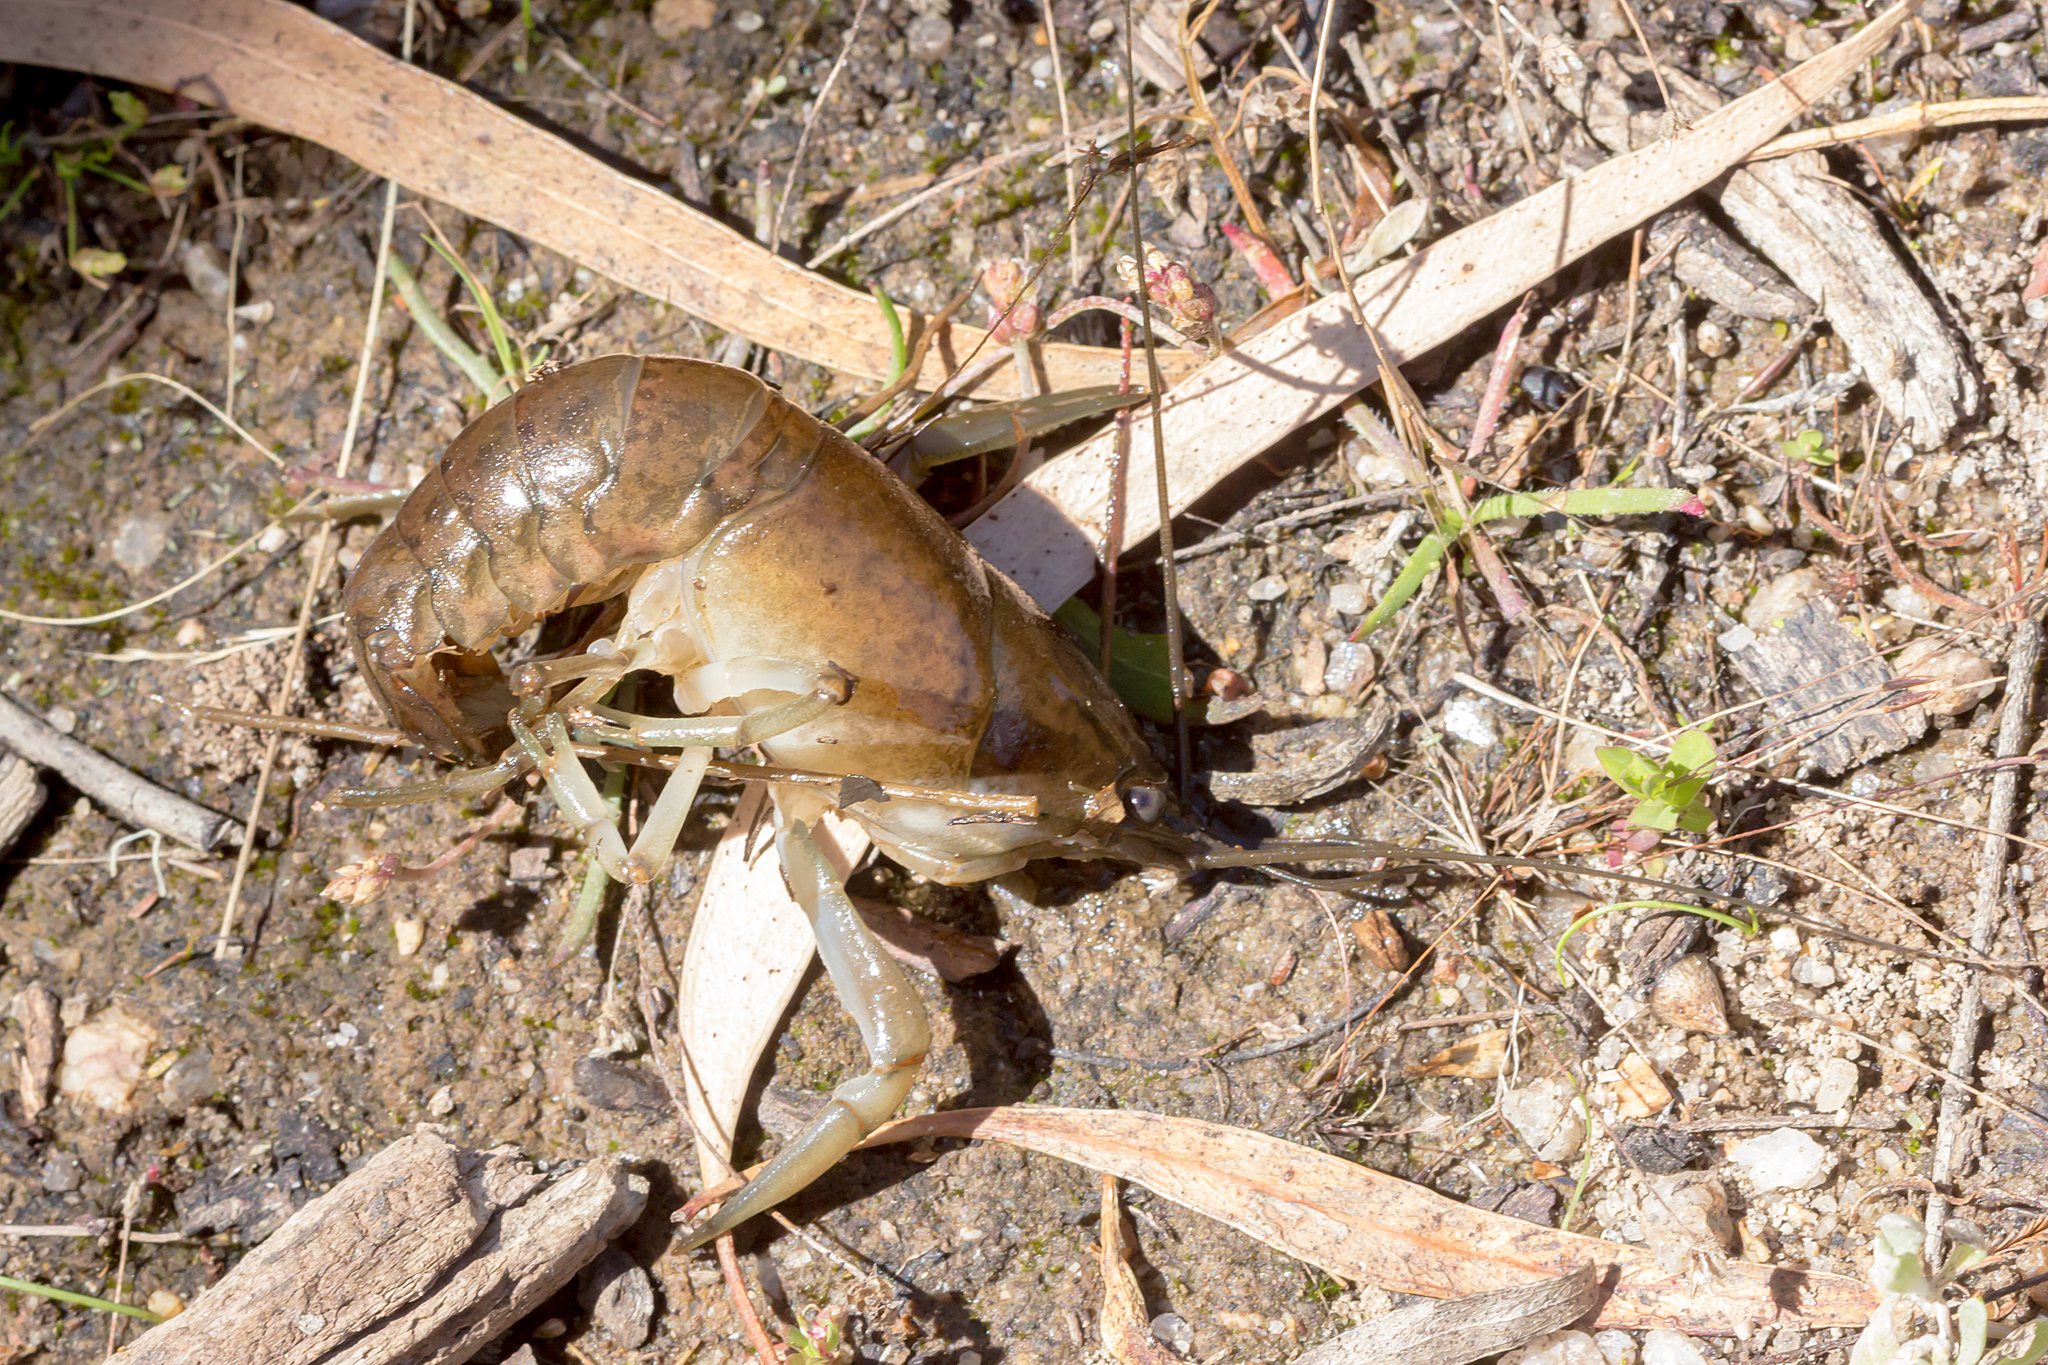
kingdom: Animalia
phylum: Arthropoda
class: Malacostraca
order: Decapoda
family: Parastacidae
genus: Cherax
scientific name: Cherax destructor
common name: Yabby
